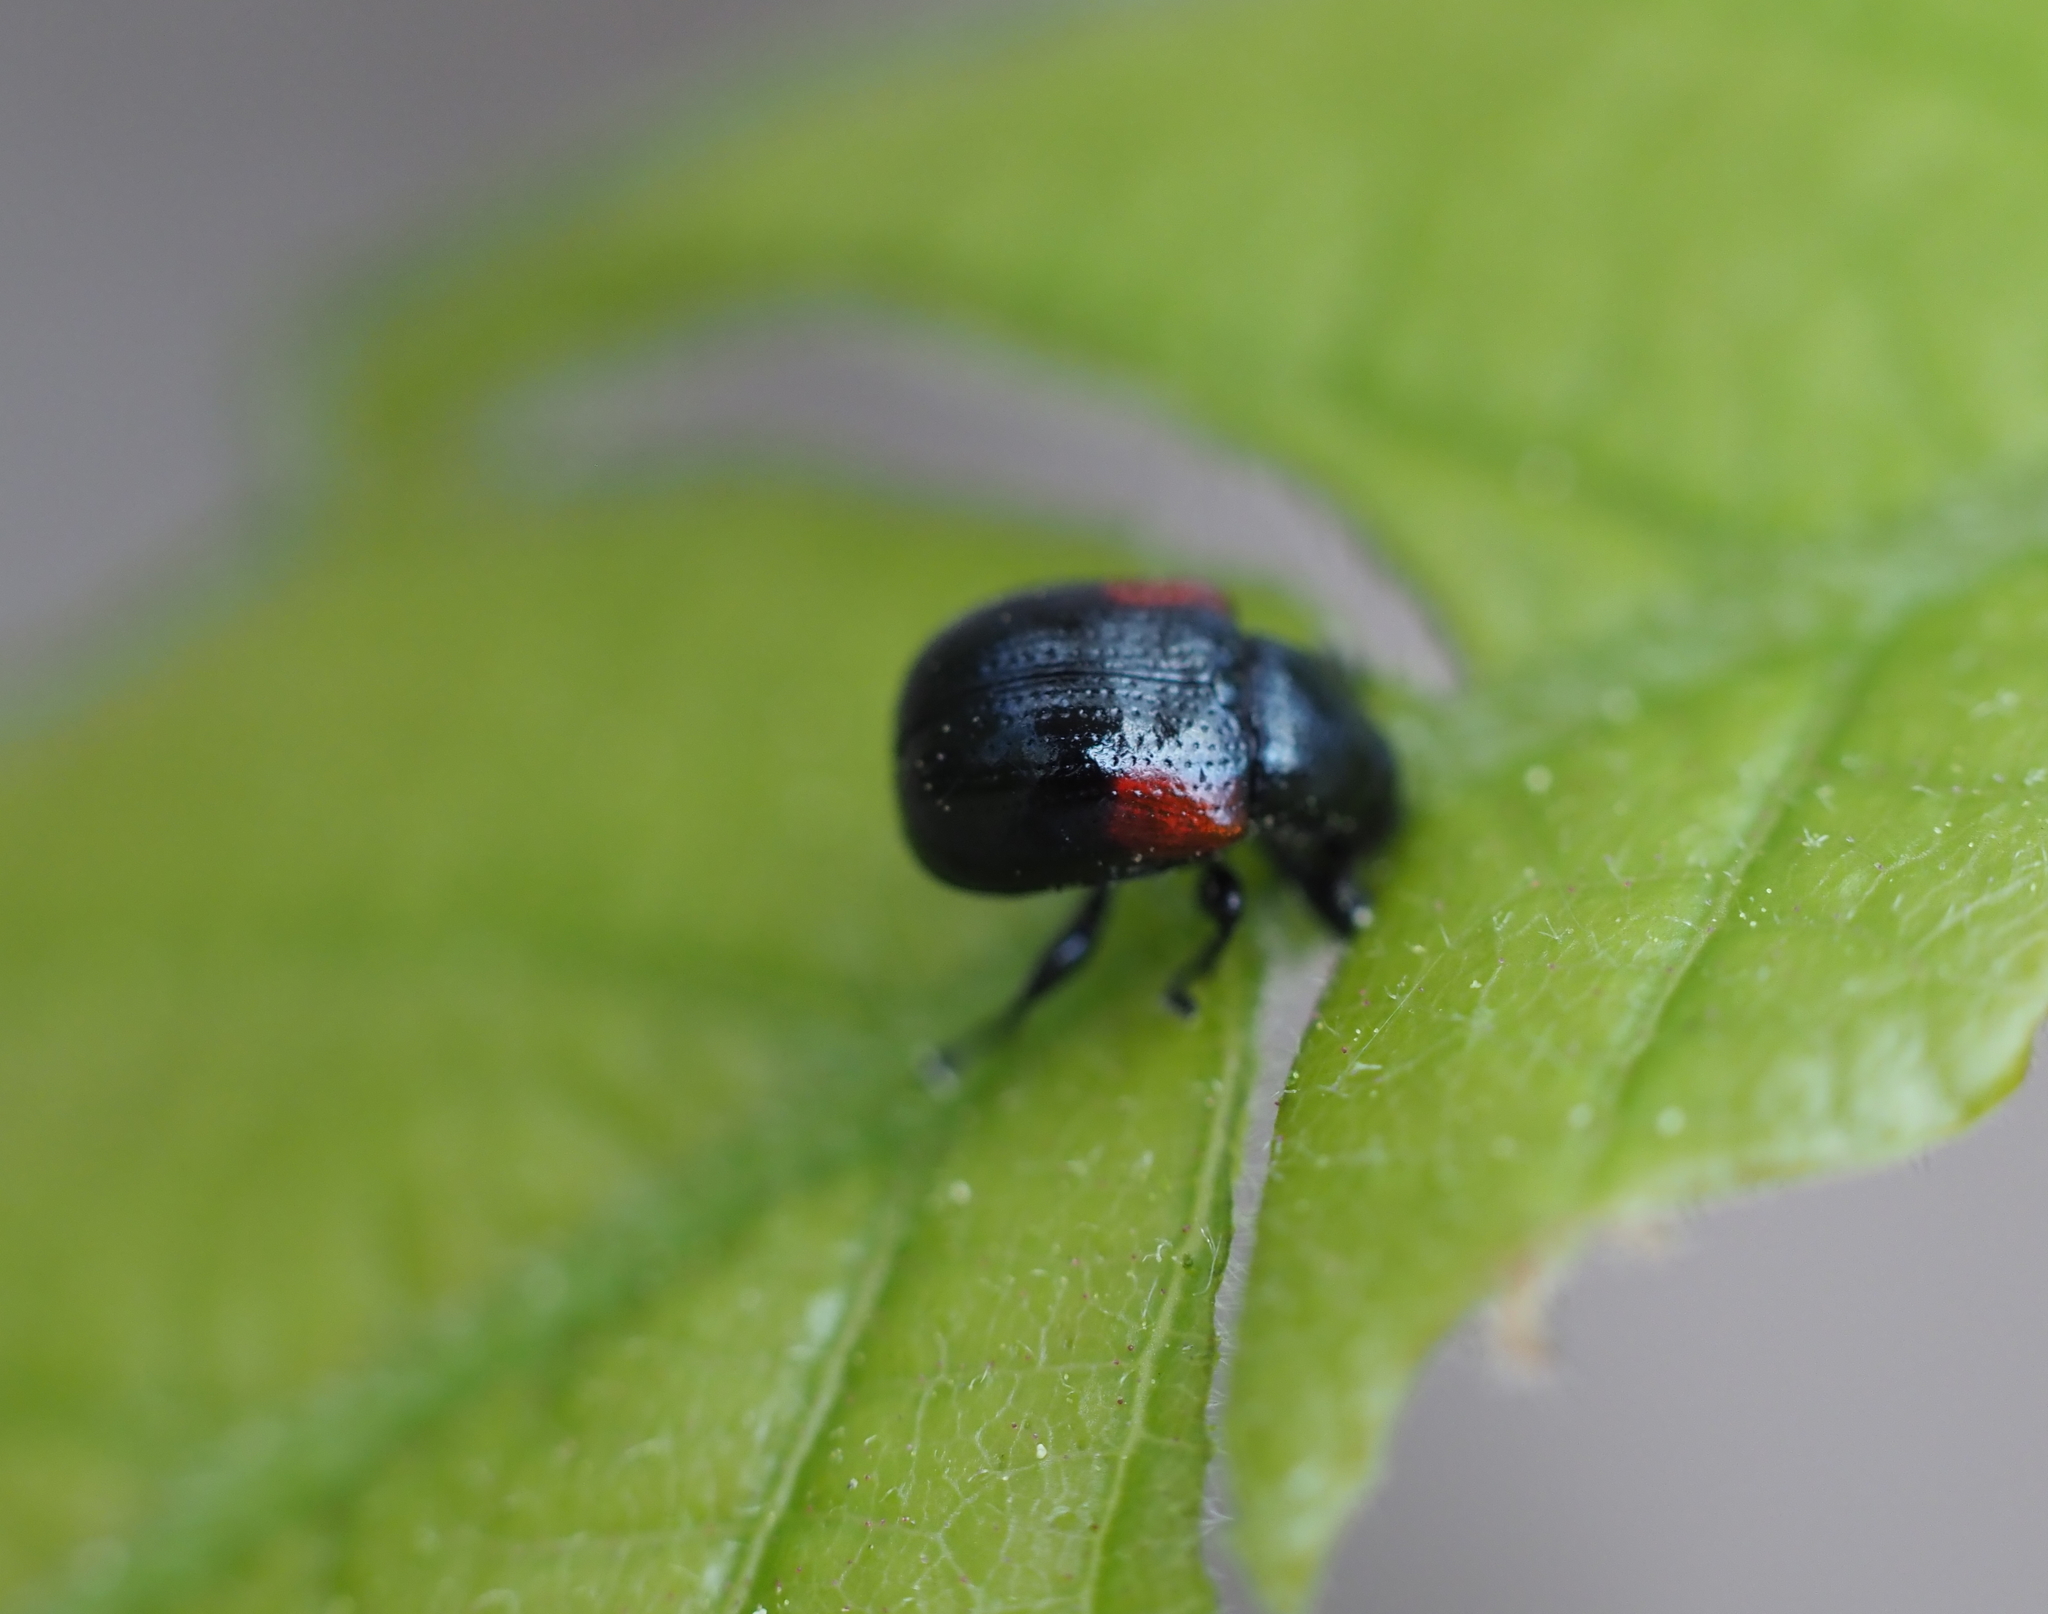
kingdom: Animalia
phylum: Arthropoda
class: Insecta
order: Coleoptera
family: Attelabidae
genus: Attelabus
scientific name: Attelabus bipustulatus
